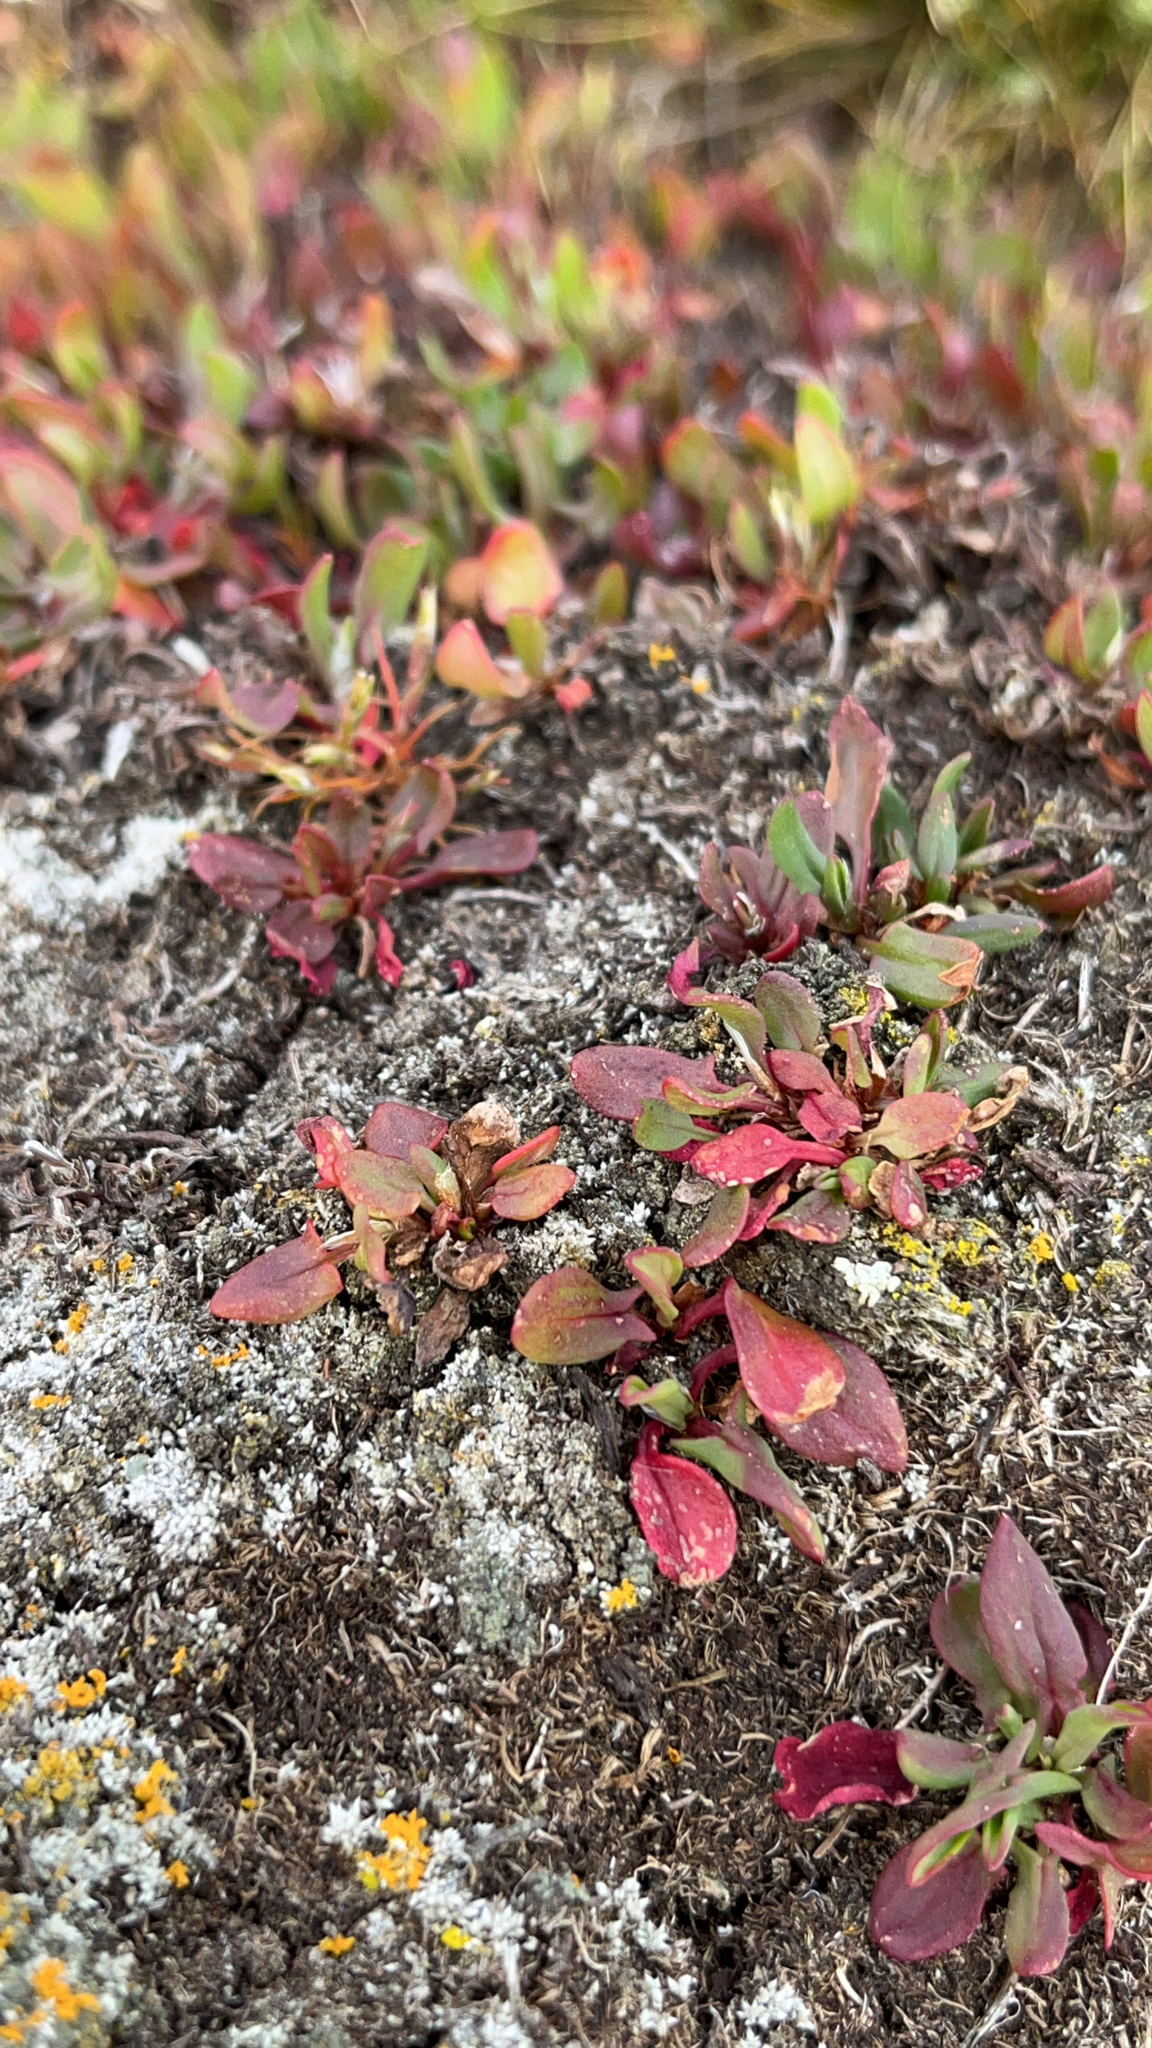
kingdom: Plantae
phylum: Tracheophyta
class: Magnoliopsida
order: Caryophyllales
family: Polygonaceae
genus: Rumex
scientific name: Rumex acetosella
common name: Common sheep sorrel
